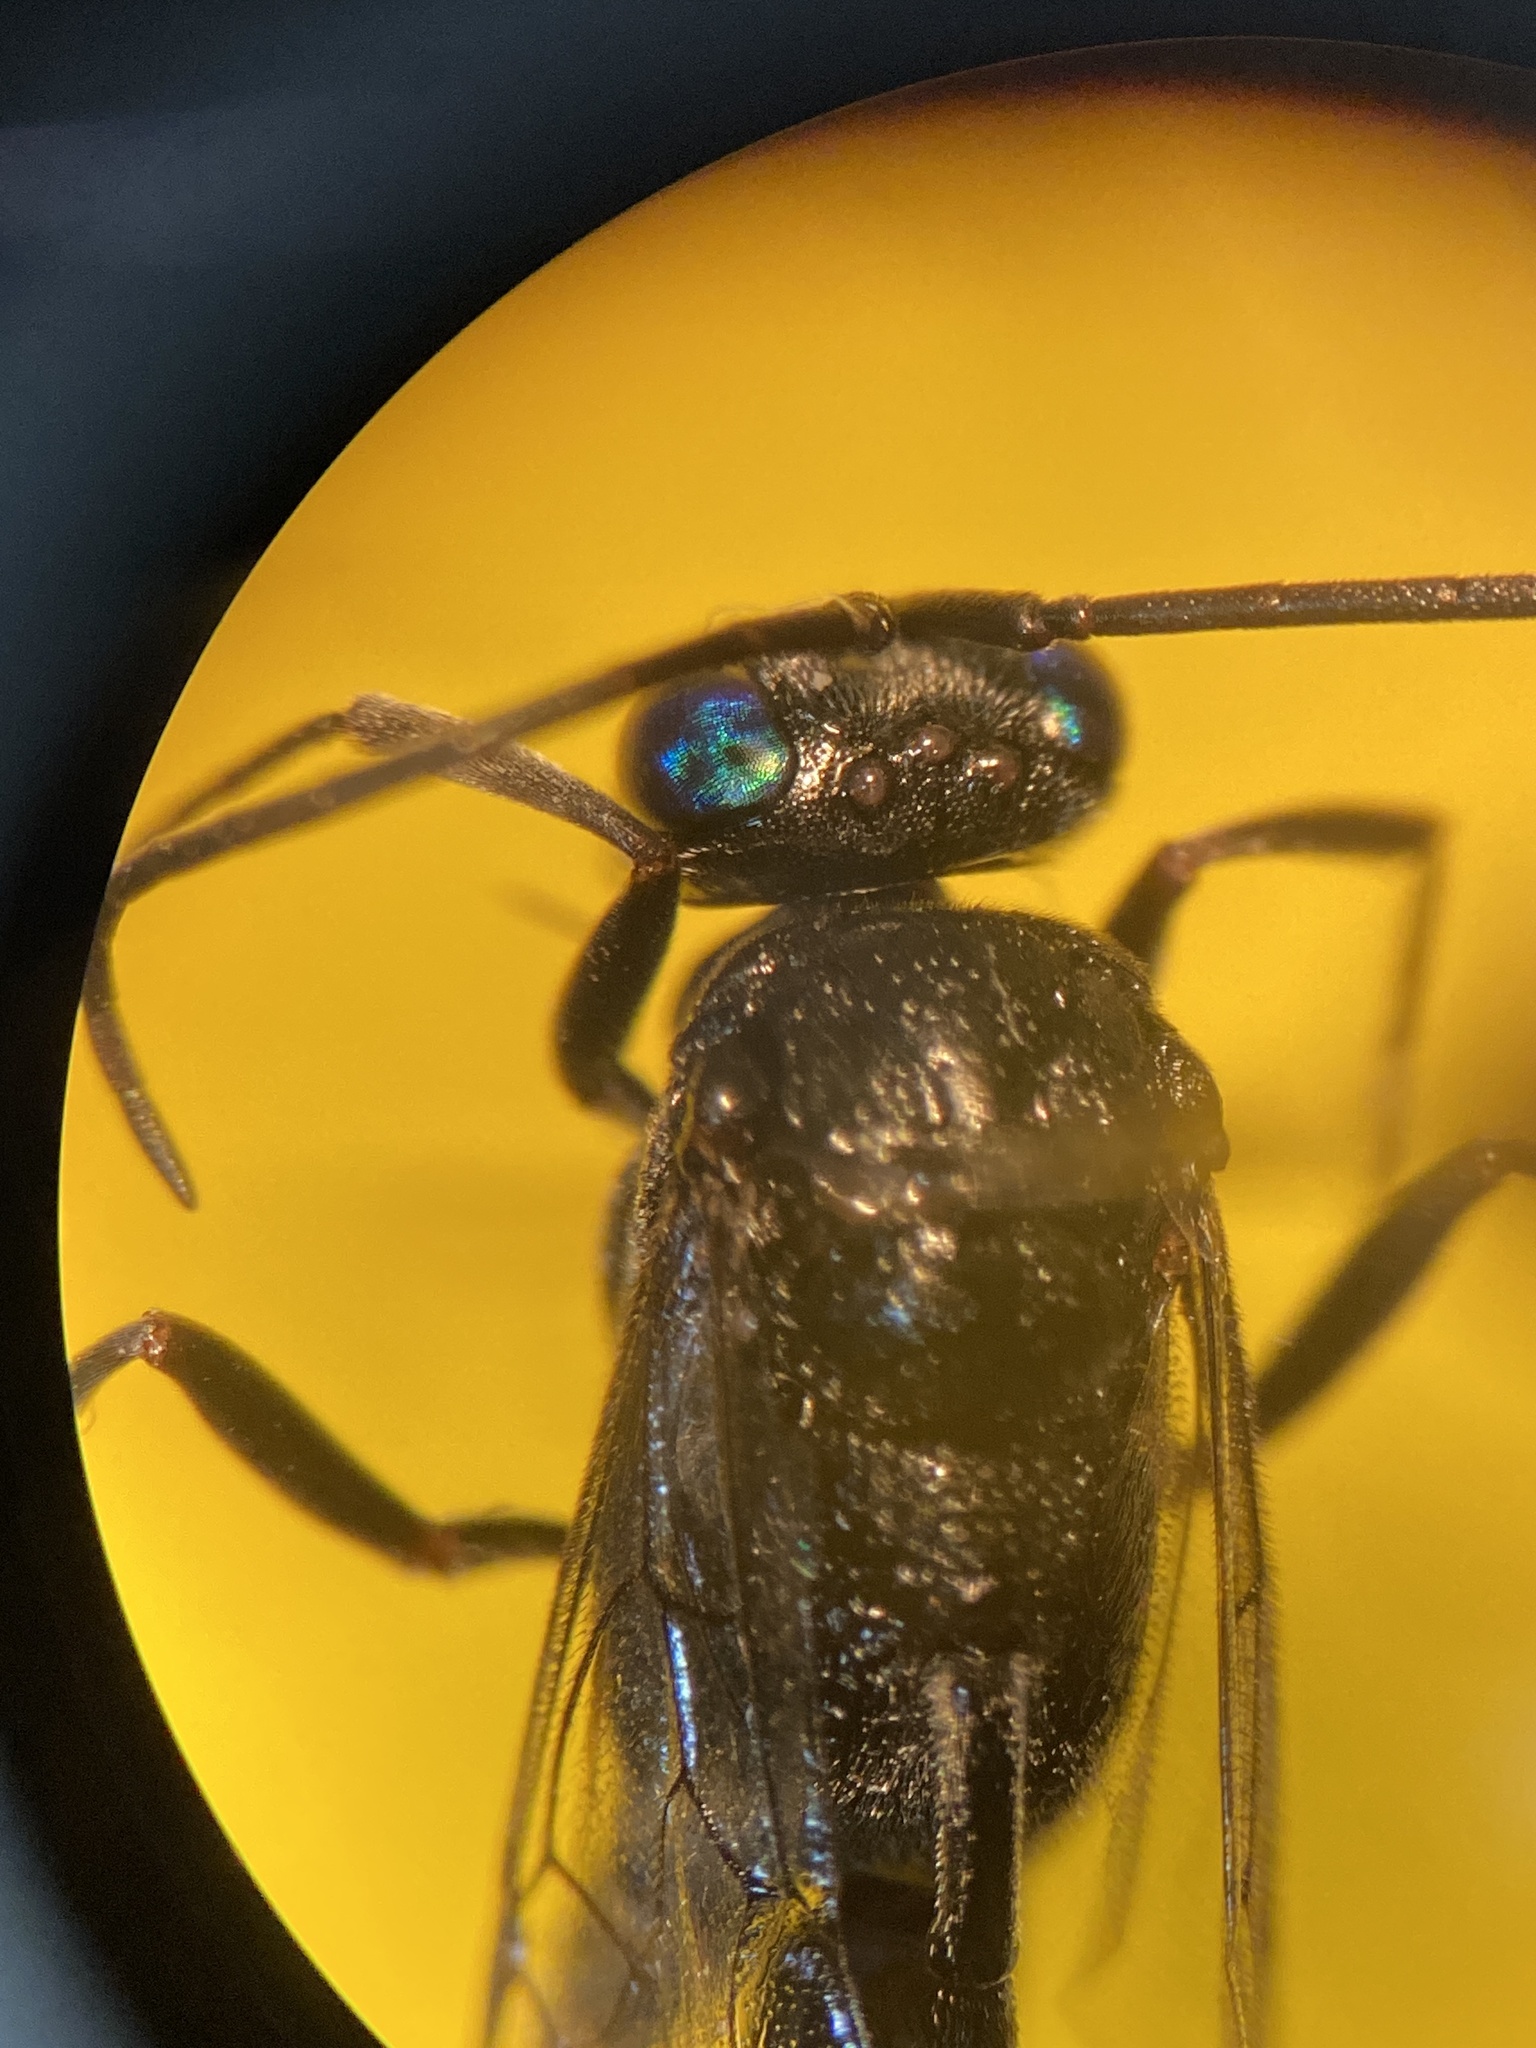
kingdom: Animalia
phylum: Arthropoda
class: Insecta
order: Hymenoptera
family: Evaniidae
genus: Evania
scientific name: Evania appendigaster
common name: Ensign wasp
